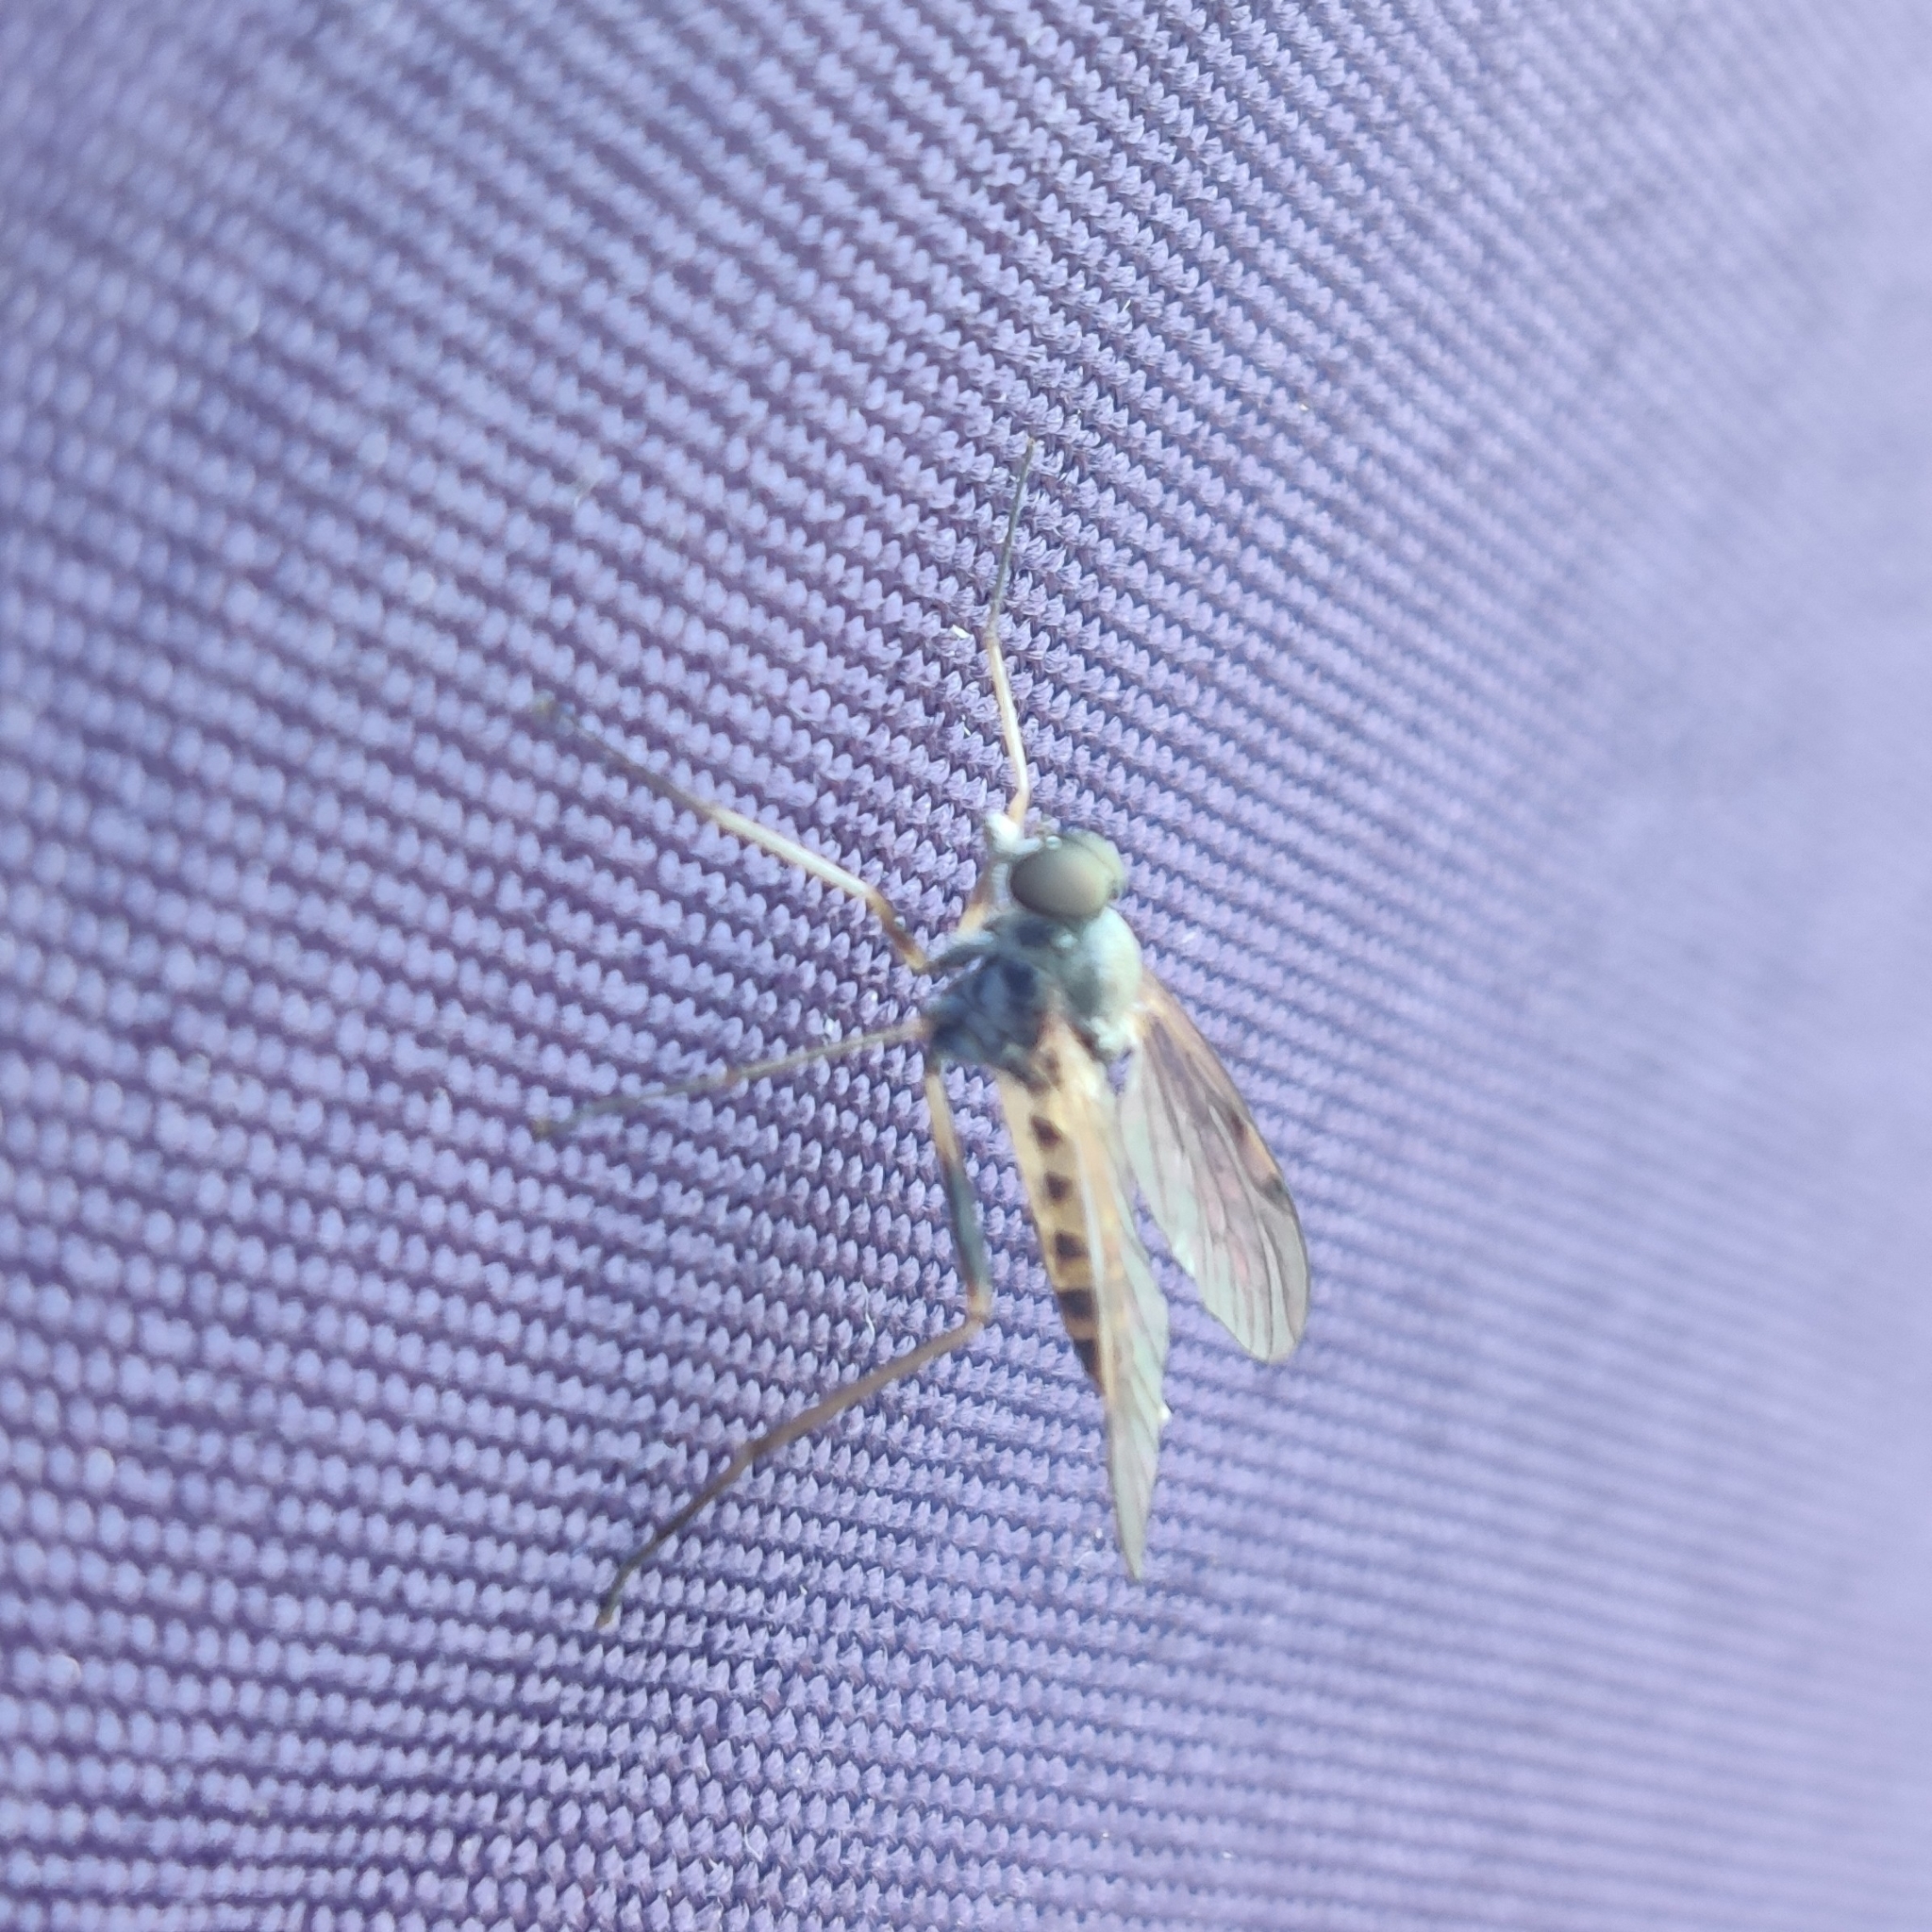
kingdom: Animalia
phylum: Arthropoda
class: Insecta
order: Diptera
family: Rhagionidae
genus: Rhagio
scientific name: Rhagio maculatus
